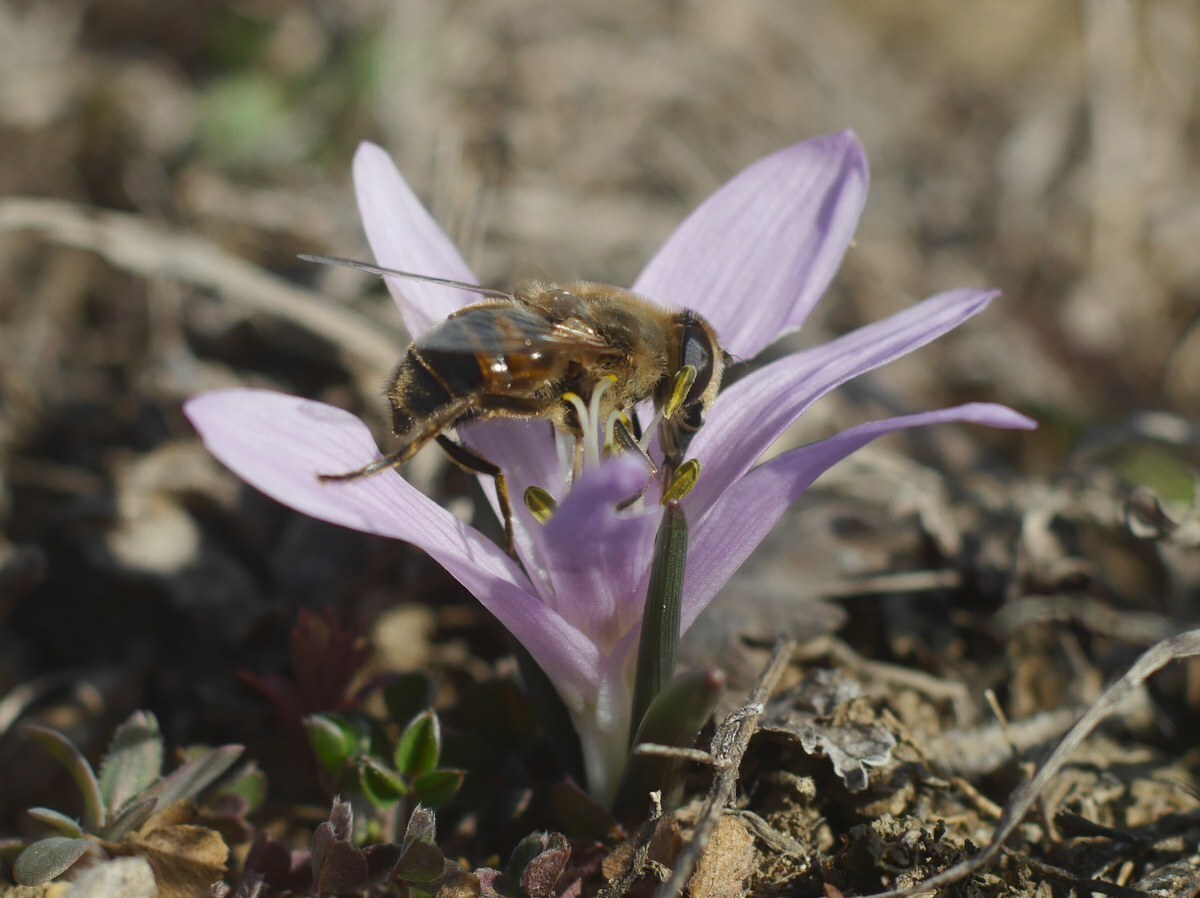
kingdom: Animalia
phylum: Arthropoda
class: Insecta
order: Diptera
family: Syrphidae
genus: Eristalis
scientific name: Eristalis tenax
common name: Drone fly
